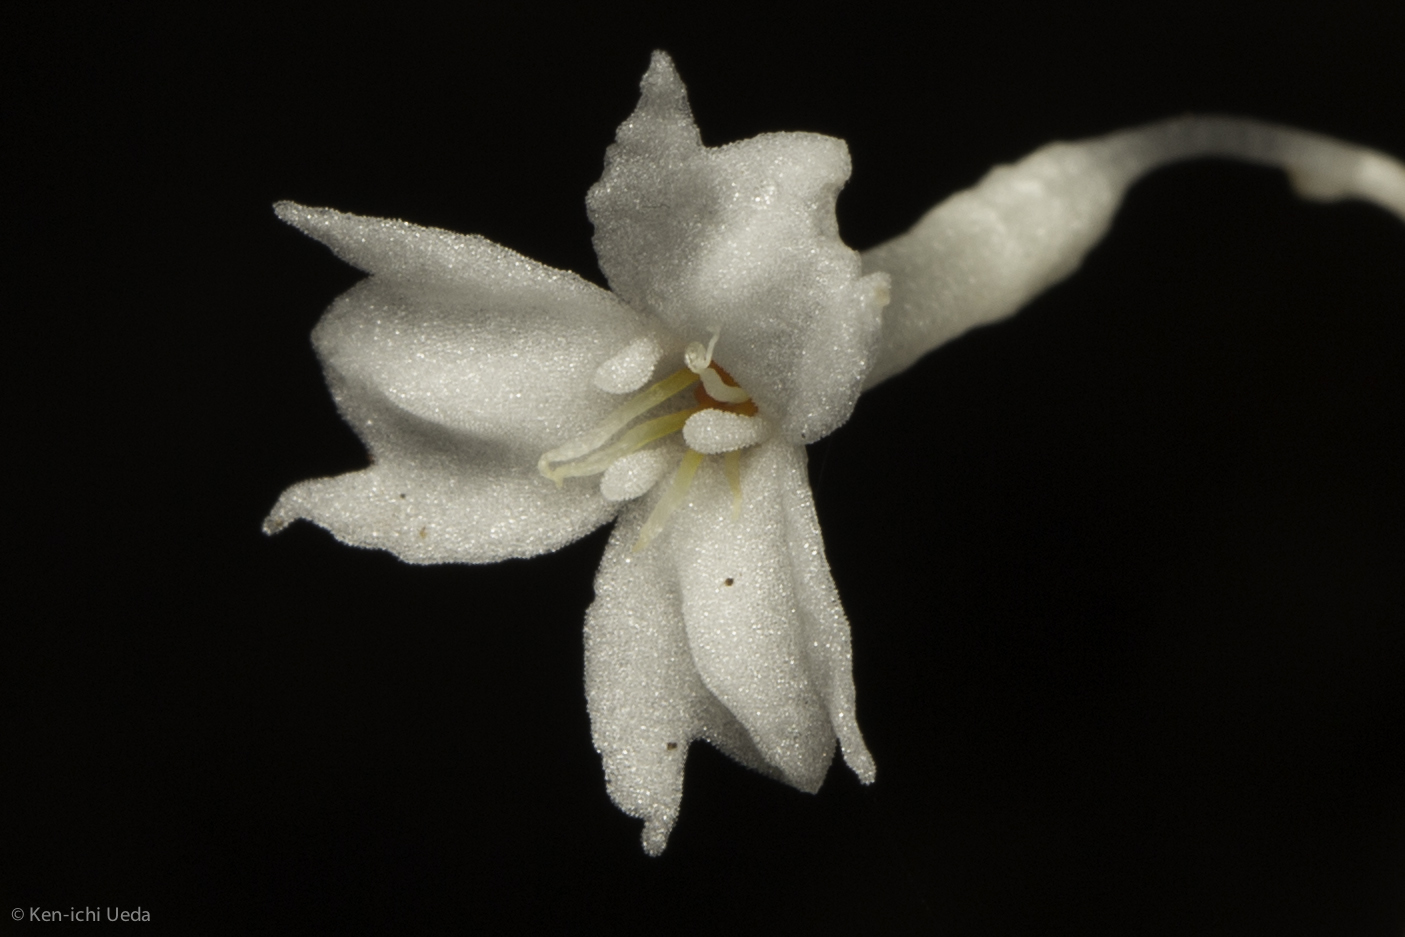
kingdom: Plantae
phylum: Tracheophyta
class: Liliopsida
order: Dioscoreales
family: Burmanniaceae
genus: Gymnosiphon
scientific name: Gymnosiphon suaveolens
